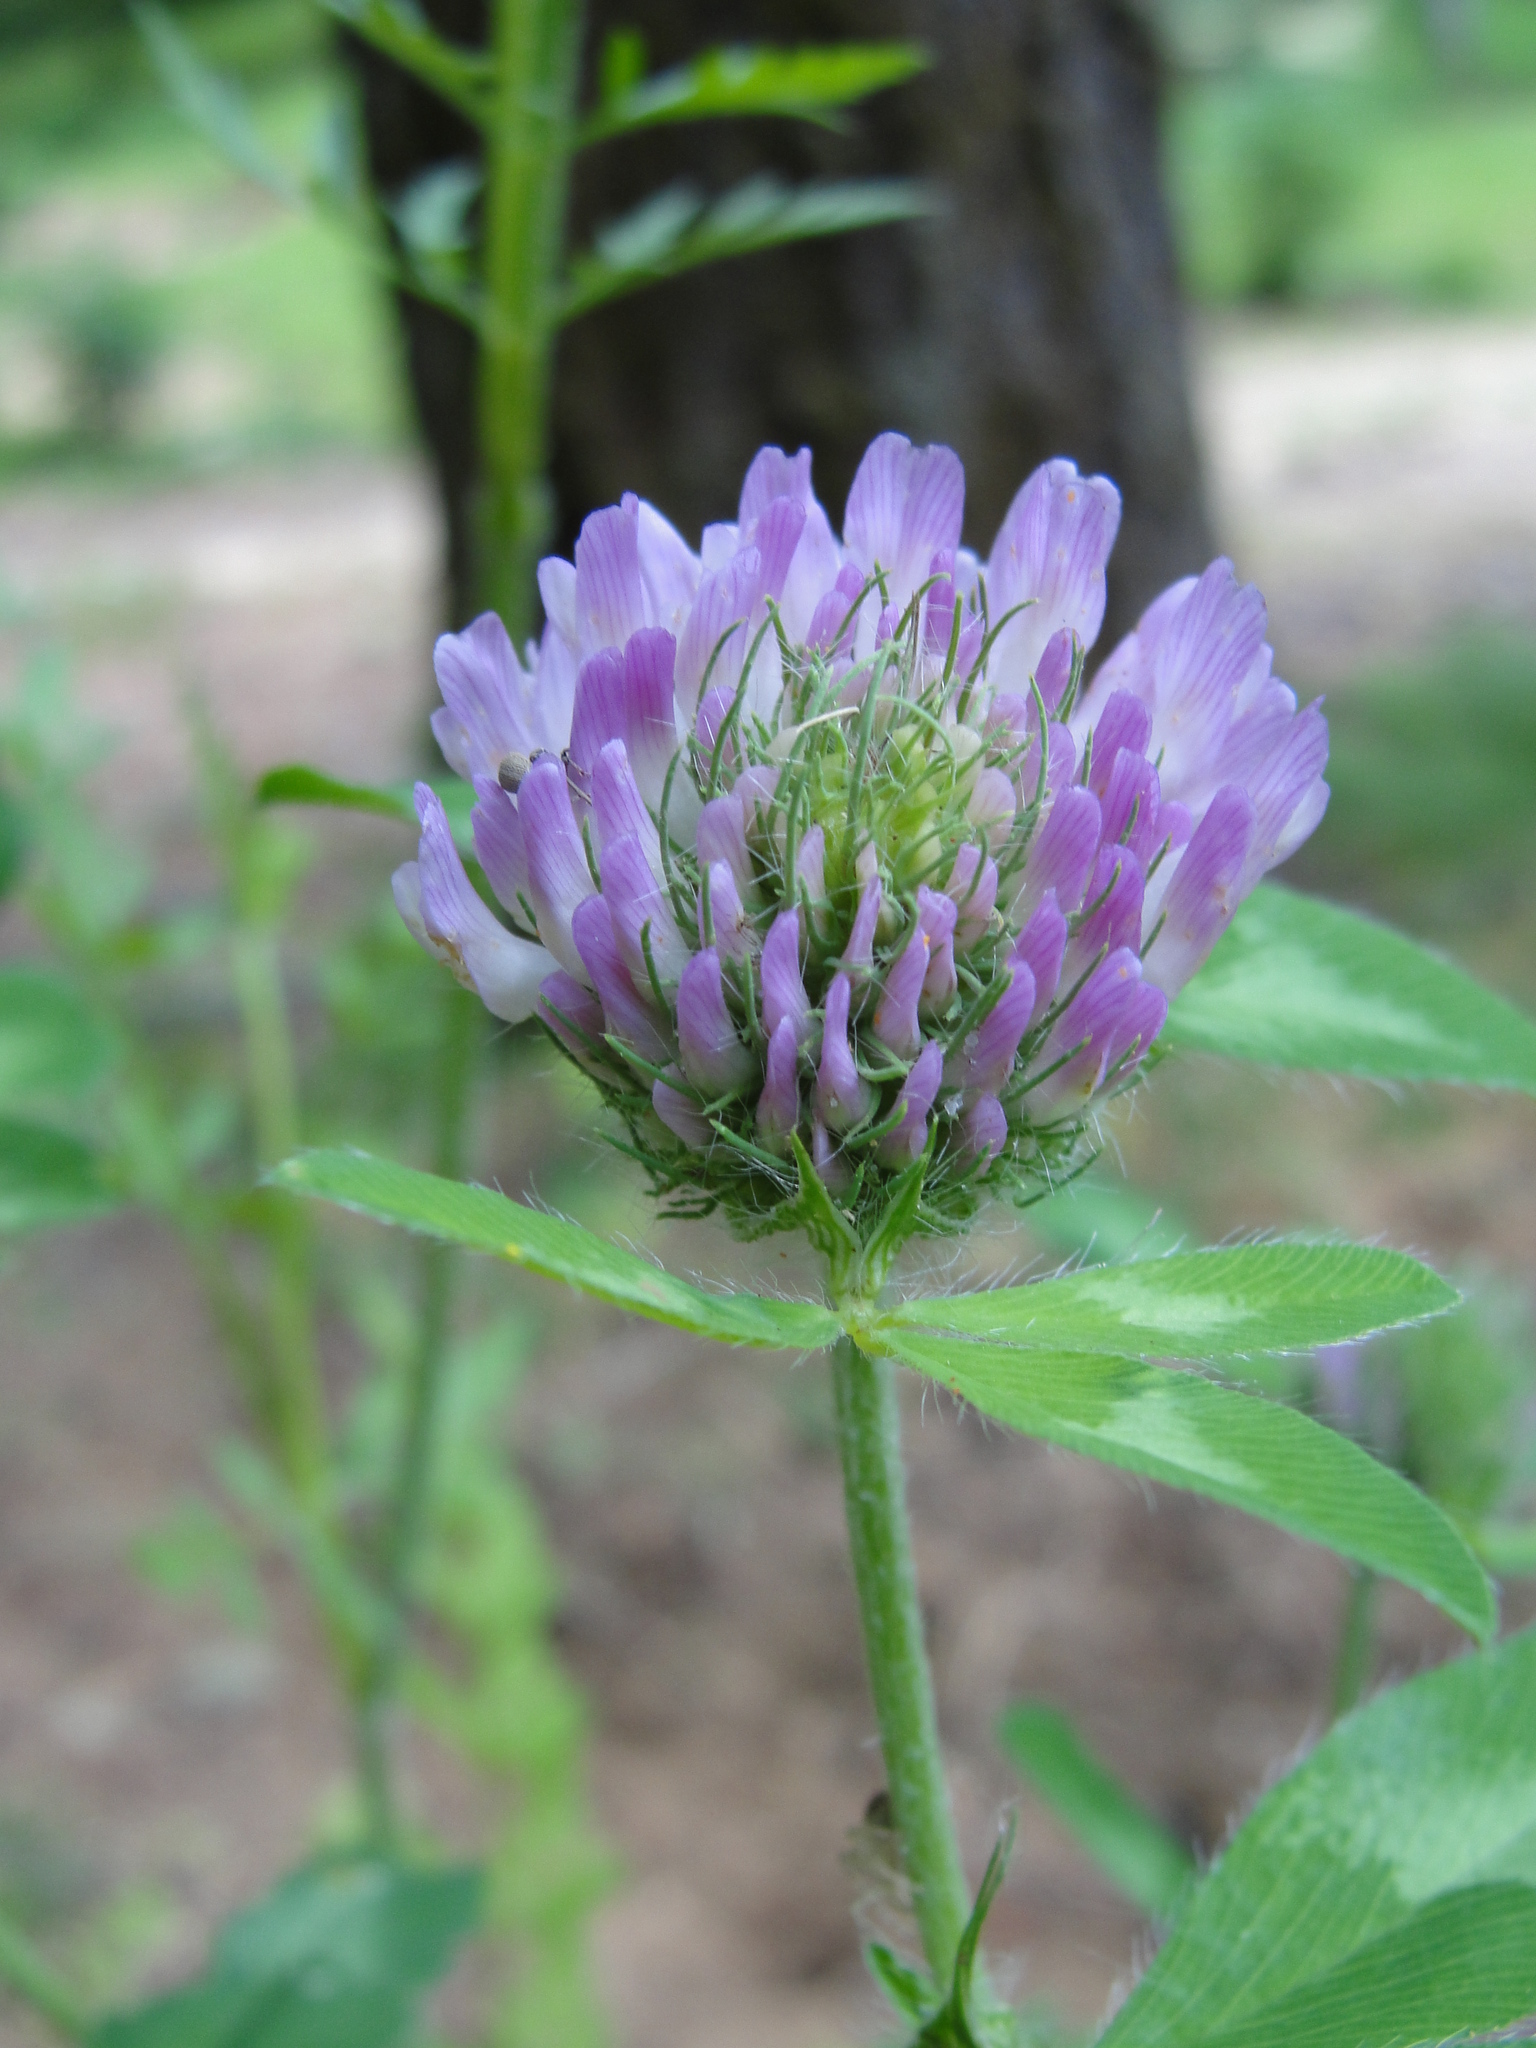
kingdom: Plantae
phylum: Tracheophyta
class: Magnoliopsida
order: Fabales
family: Fabaceae
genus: Trifolium
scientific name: Trifolium pratense
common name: Red clover
